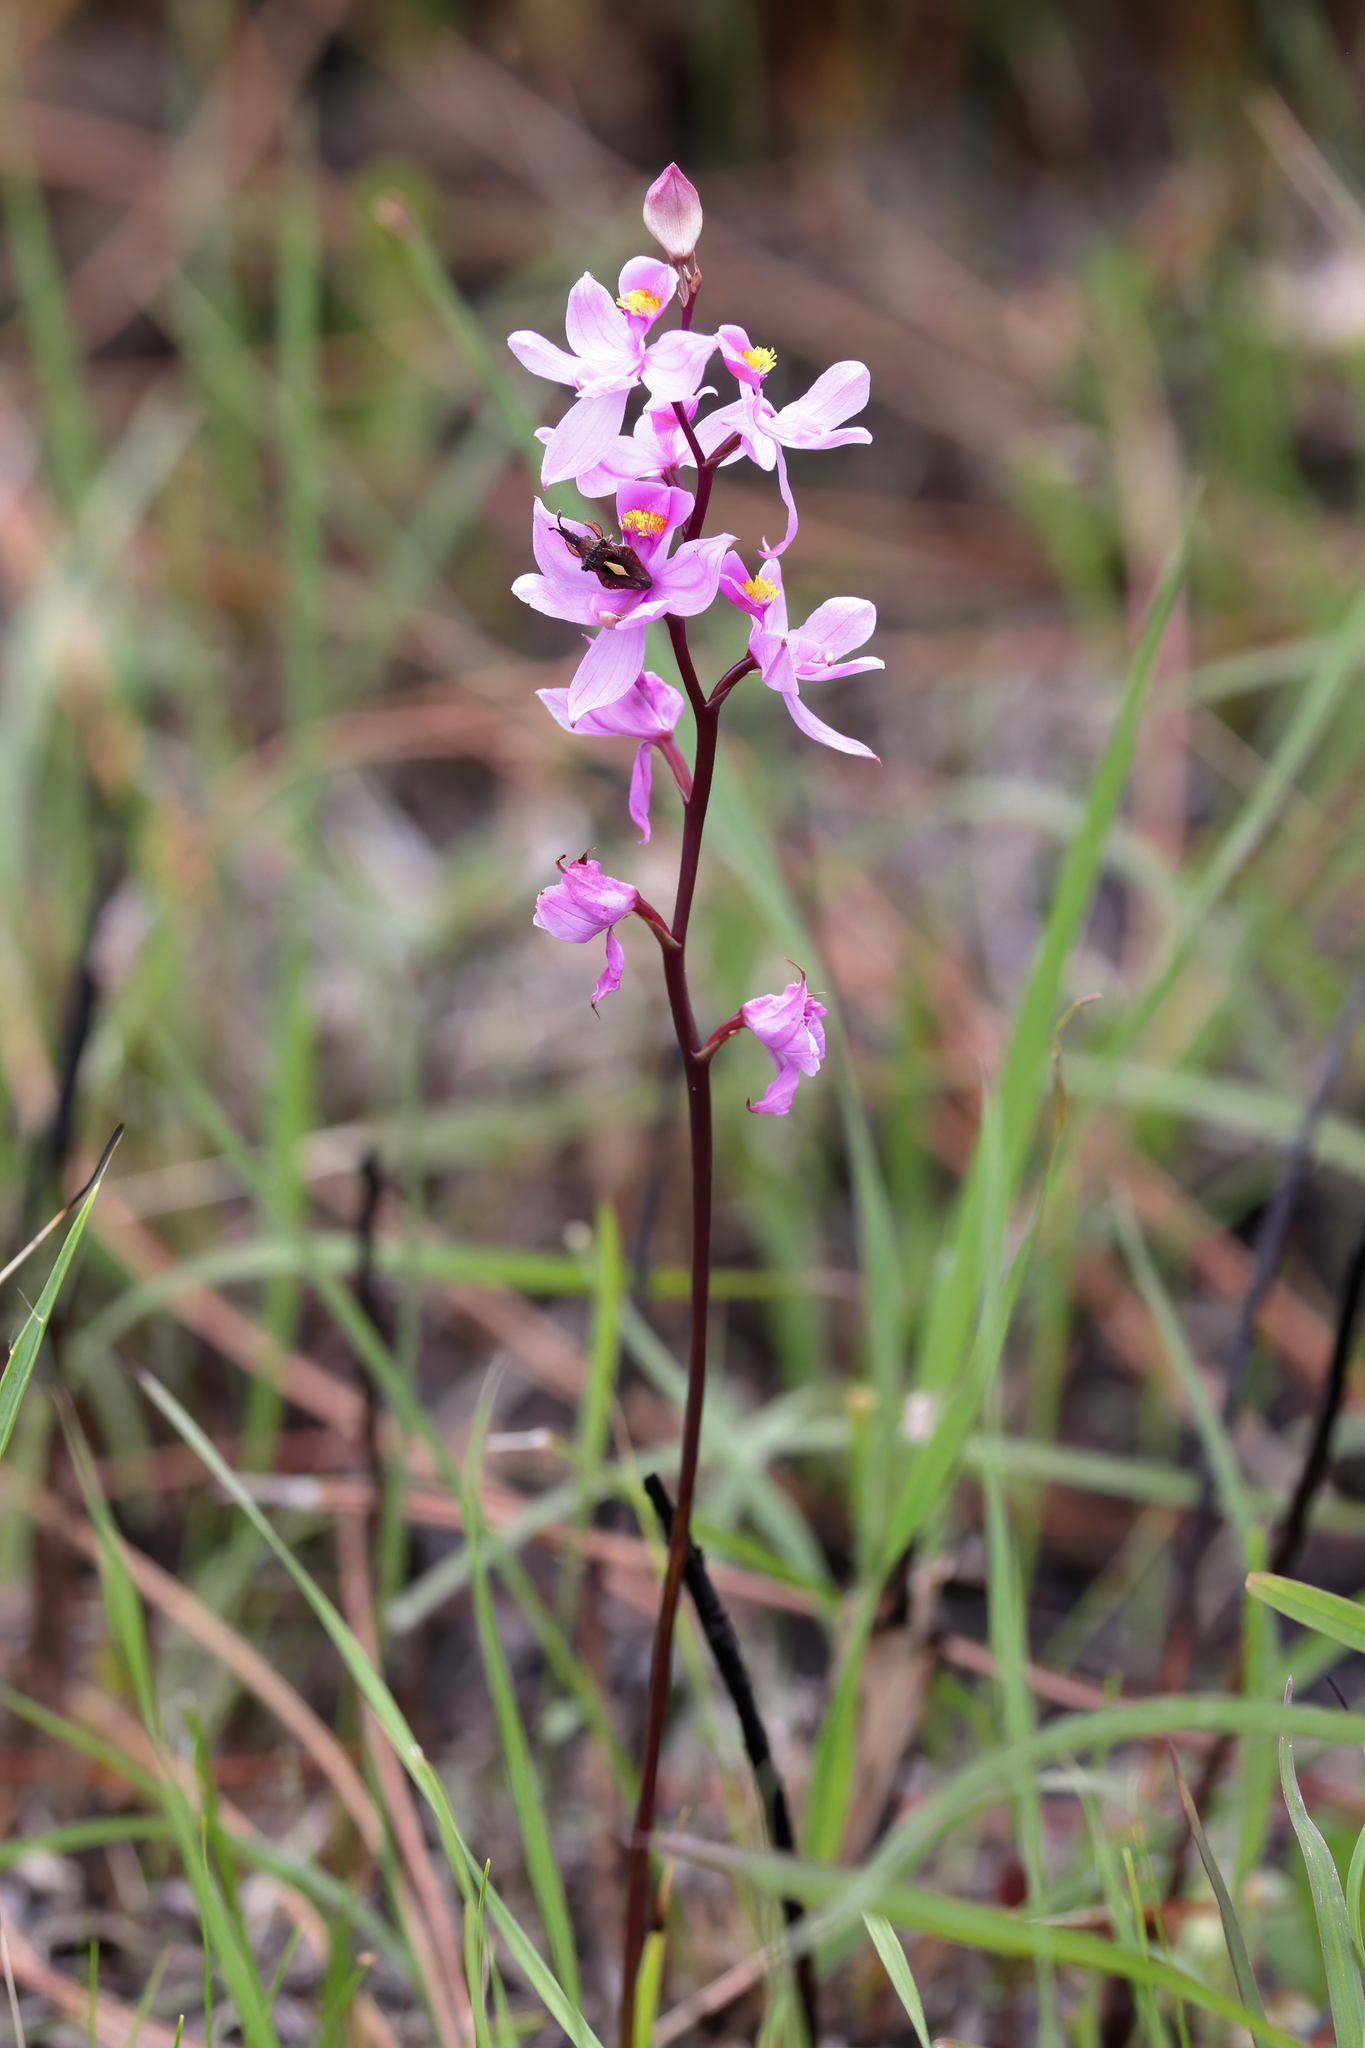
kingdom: Plantae
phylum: Tracheophyta
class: Liliopsida
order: Asparagales
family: Orchidaceae
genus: Calopogon
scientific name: Calopogon multiflorus
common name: Many-flowered grass-pink orchid
